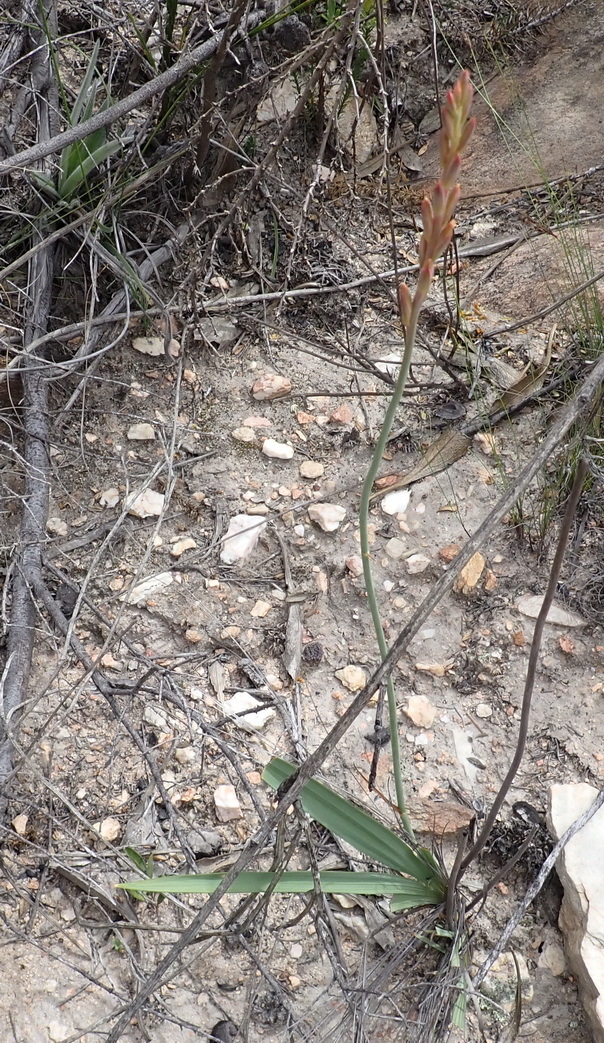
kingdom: Plantae
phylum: Tracheophyta
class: Liliopsida
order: Asparagales
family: Iridaceae
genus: Tritoniopsis
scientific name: Tritoniopsis antholyza
